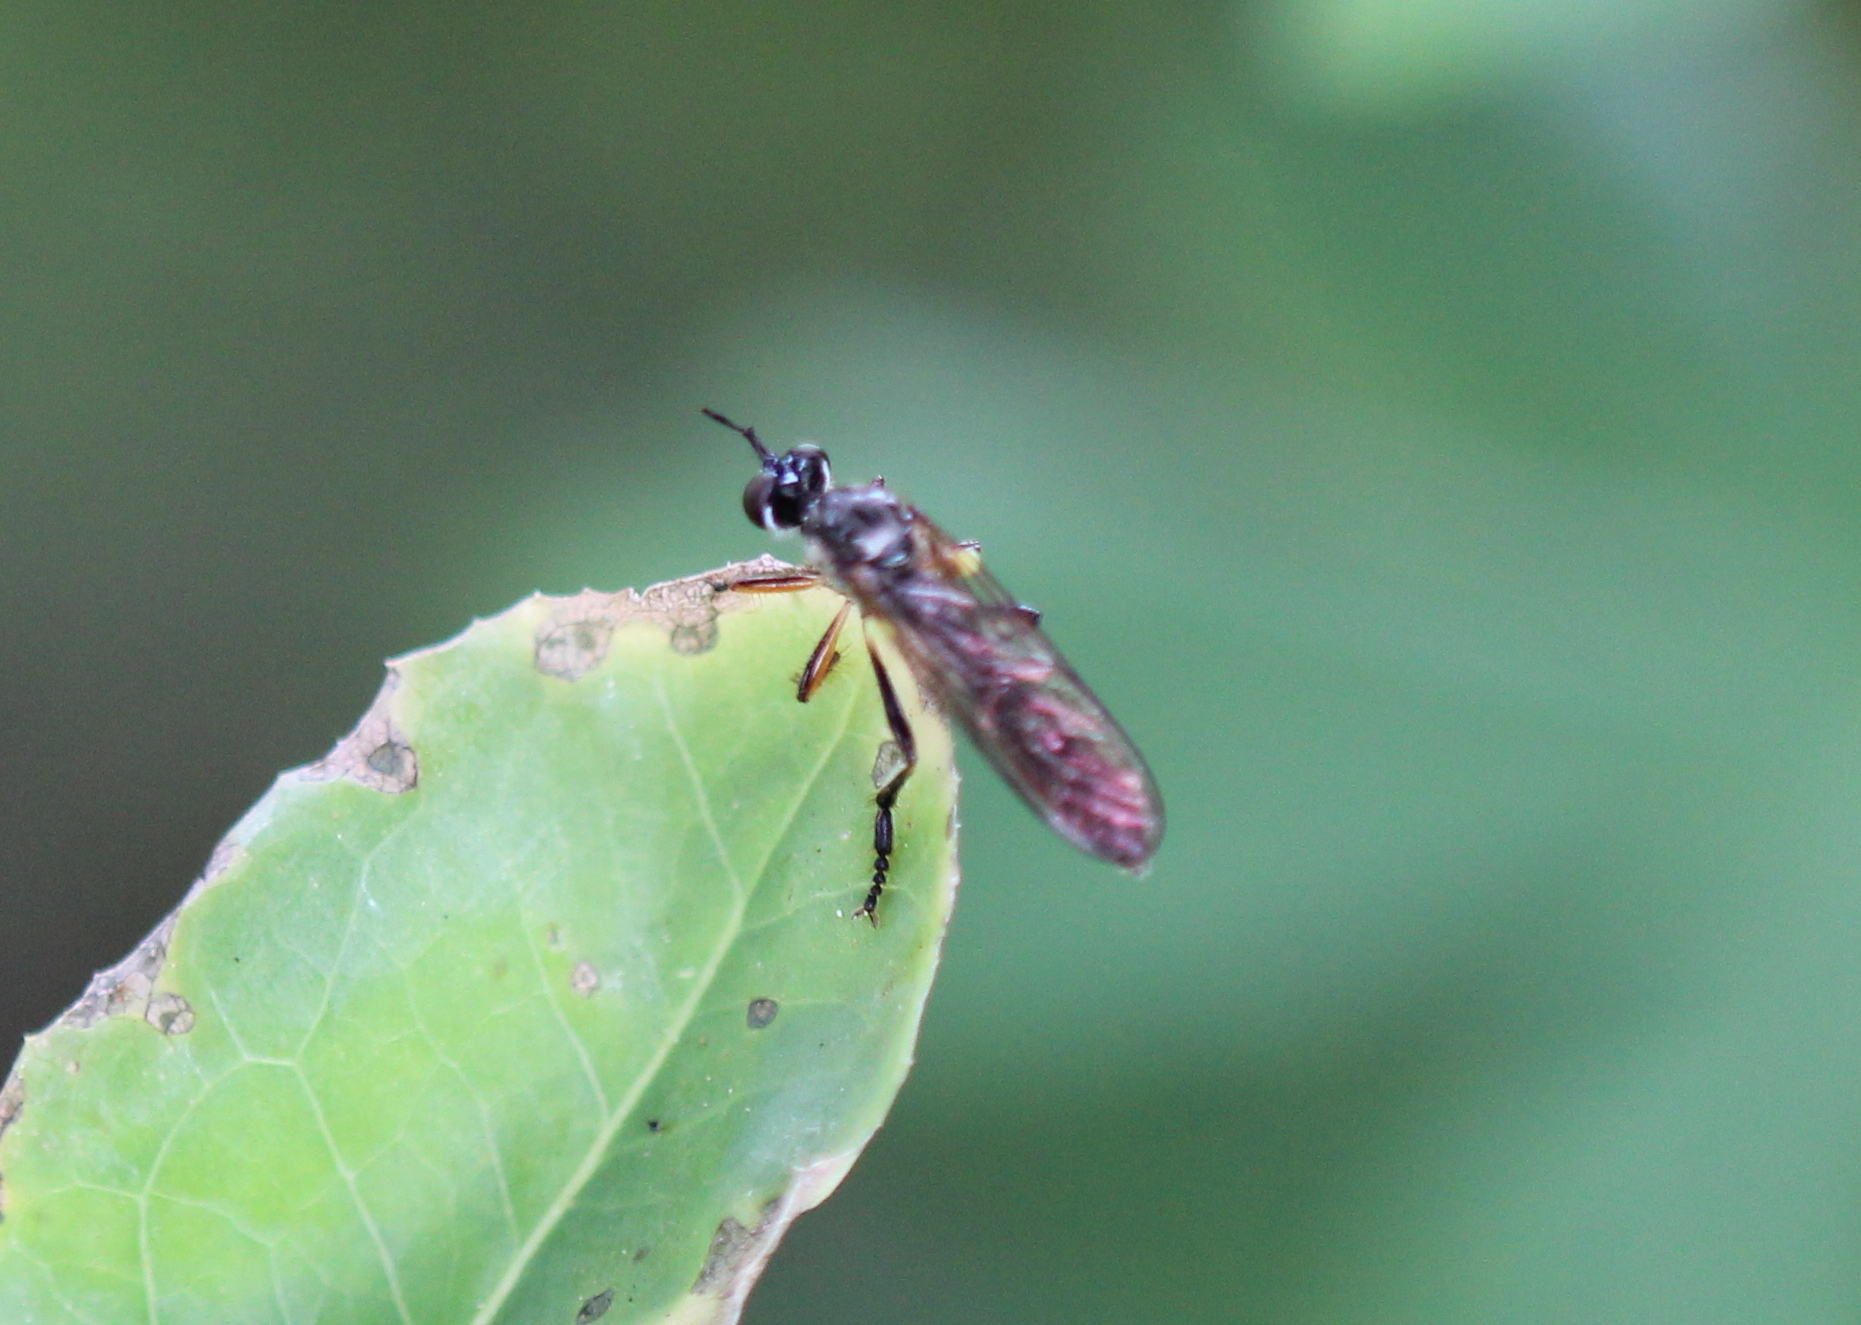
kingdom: Animalia
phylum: Arthropoda
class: Insecta
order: Diptera
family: Asilidae
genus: Dioctria
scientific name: Dioctria hyalipennis
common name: Stripe-legged robberfly
